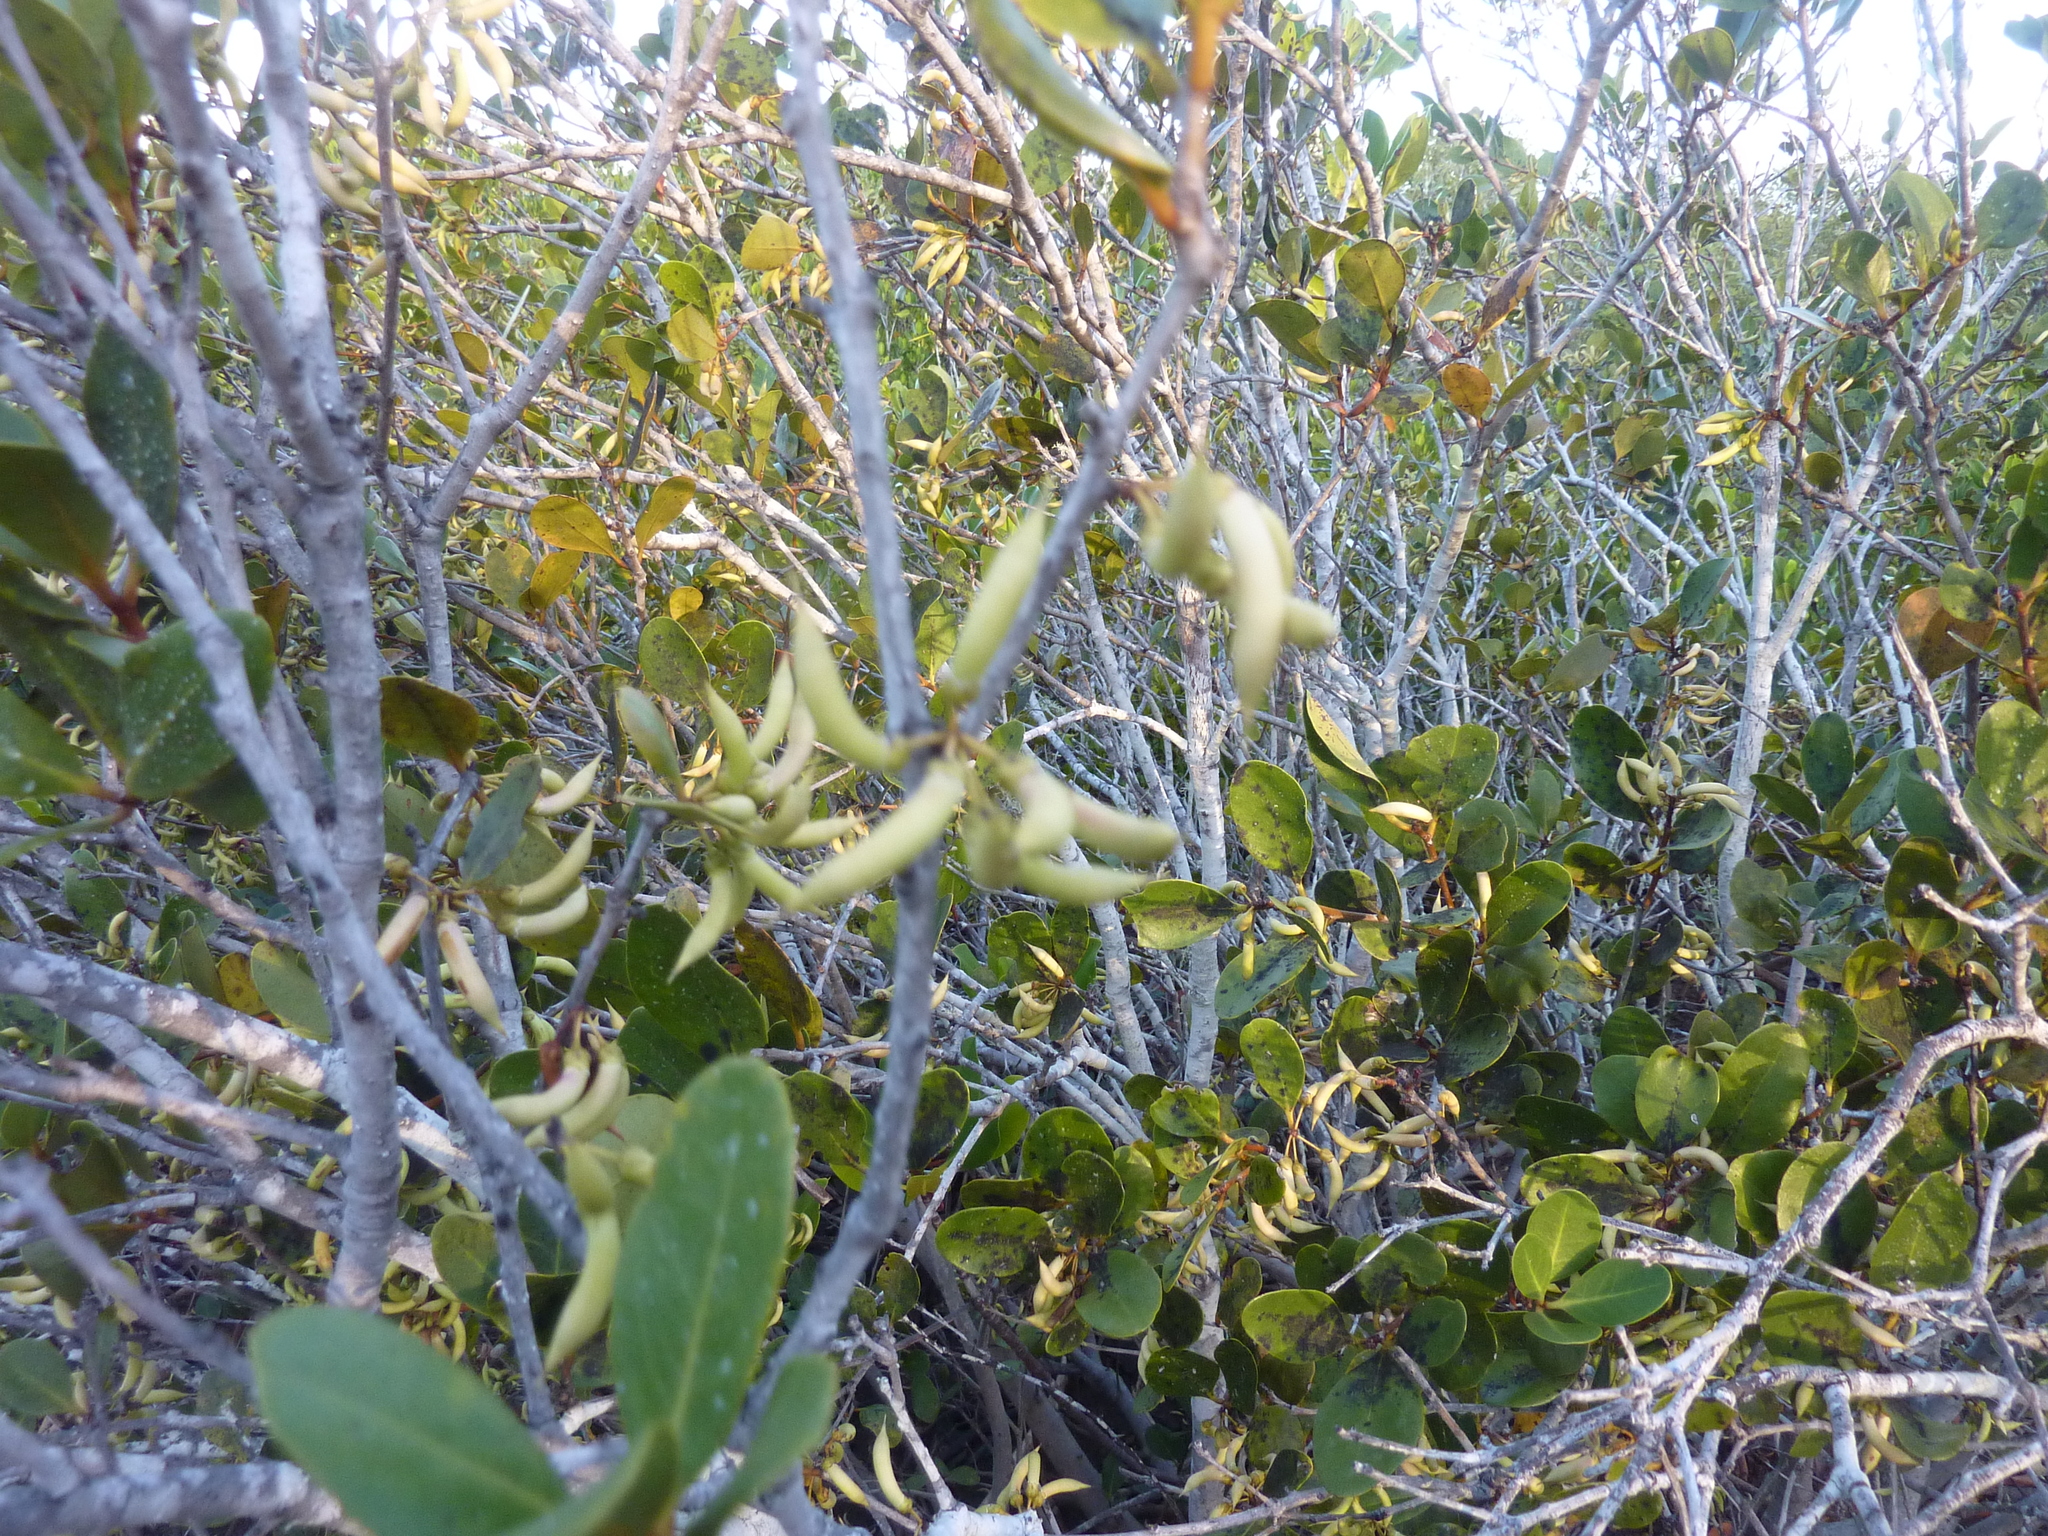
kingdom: Plantae
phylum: Tracheophyta
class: Magnoliopsida
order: Ericales
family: Primulaceae
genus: Aegiceras
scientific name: Aegiceras corniculatum
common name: River mangrove
